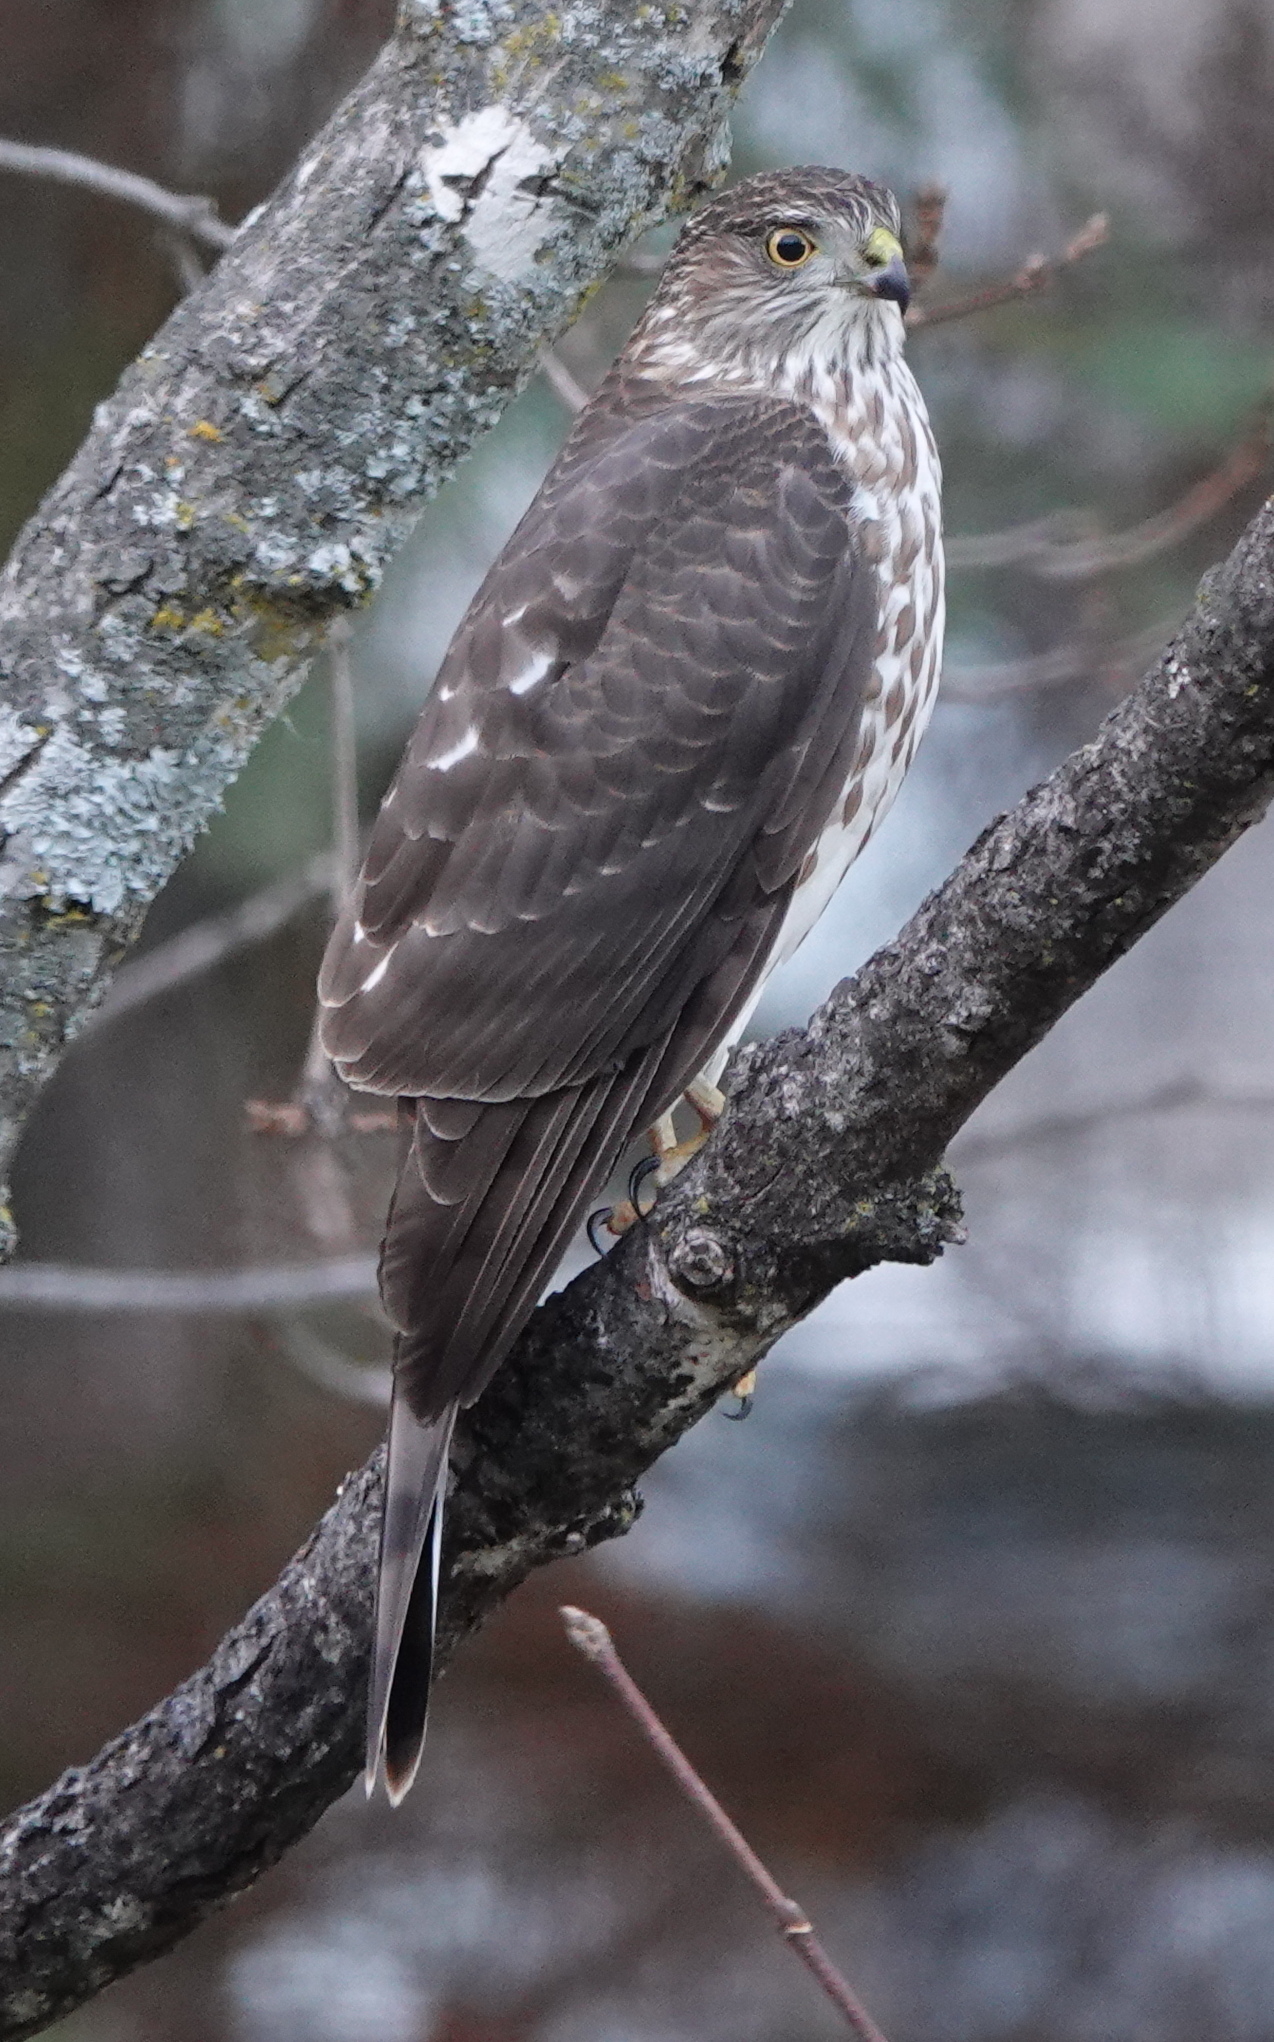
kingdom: Animalia
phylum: Chordata
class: Aves
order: Accipitriformes
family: Accipitridae
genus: Accipiter
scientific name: Accipiter striatus
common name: Sharp-shinned hawk
